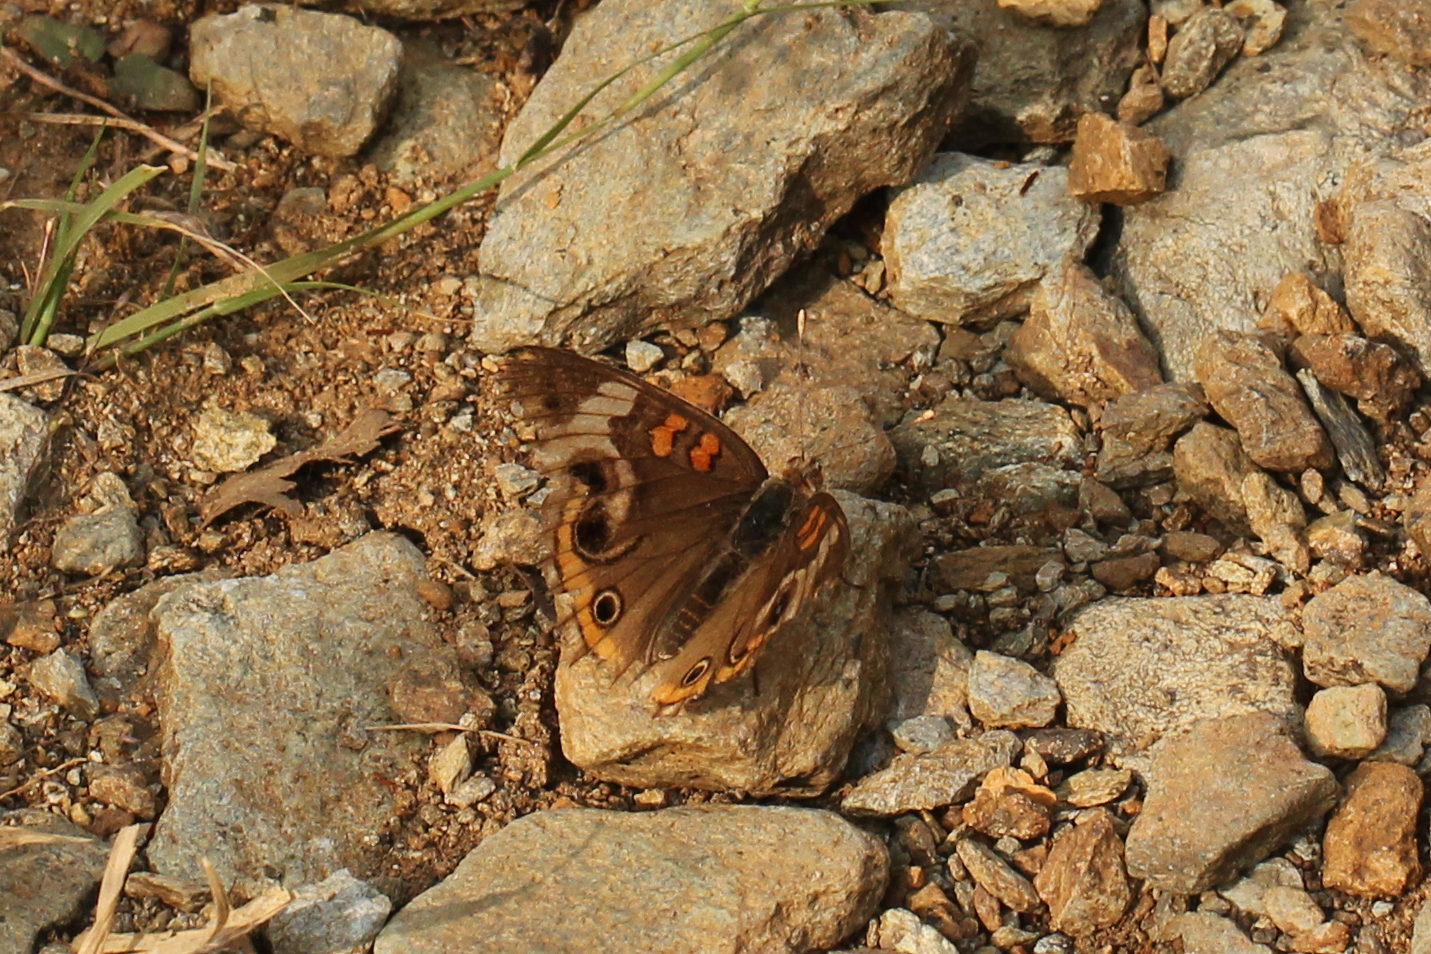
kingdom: Animalia
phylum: Arthropoda
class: Insecta
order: Lepidoptera
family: Nymphalidae
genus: Junonia
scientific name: Junonia coenia
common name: Common buckeye
